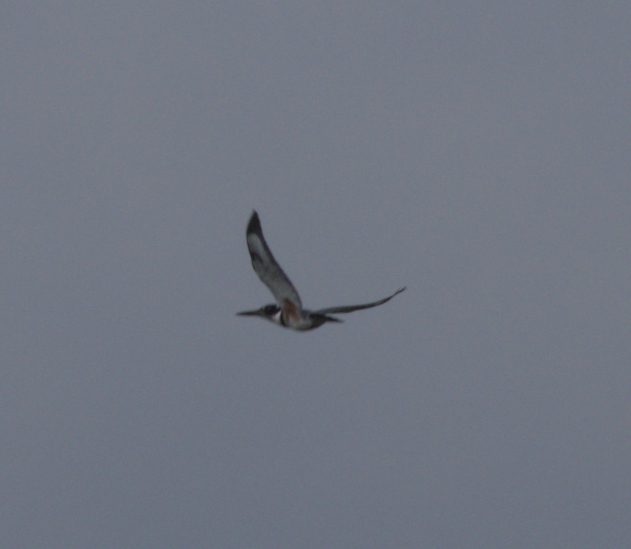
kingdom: Animalia
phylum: Chordata
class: Aves
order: Coraciiformes
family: Alcedinidae
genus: Megaceryle
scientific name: Megaceryle alcyon
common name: Belted kingfisher
